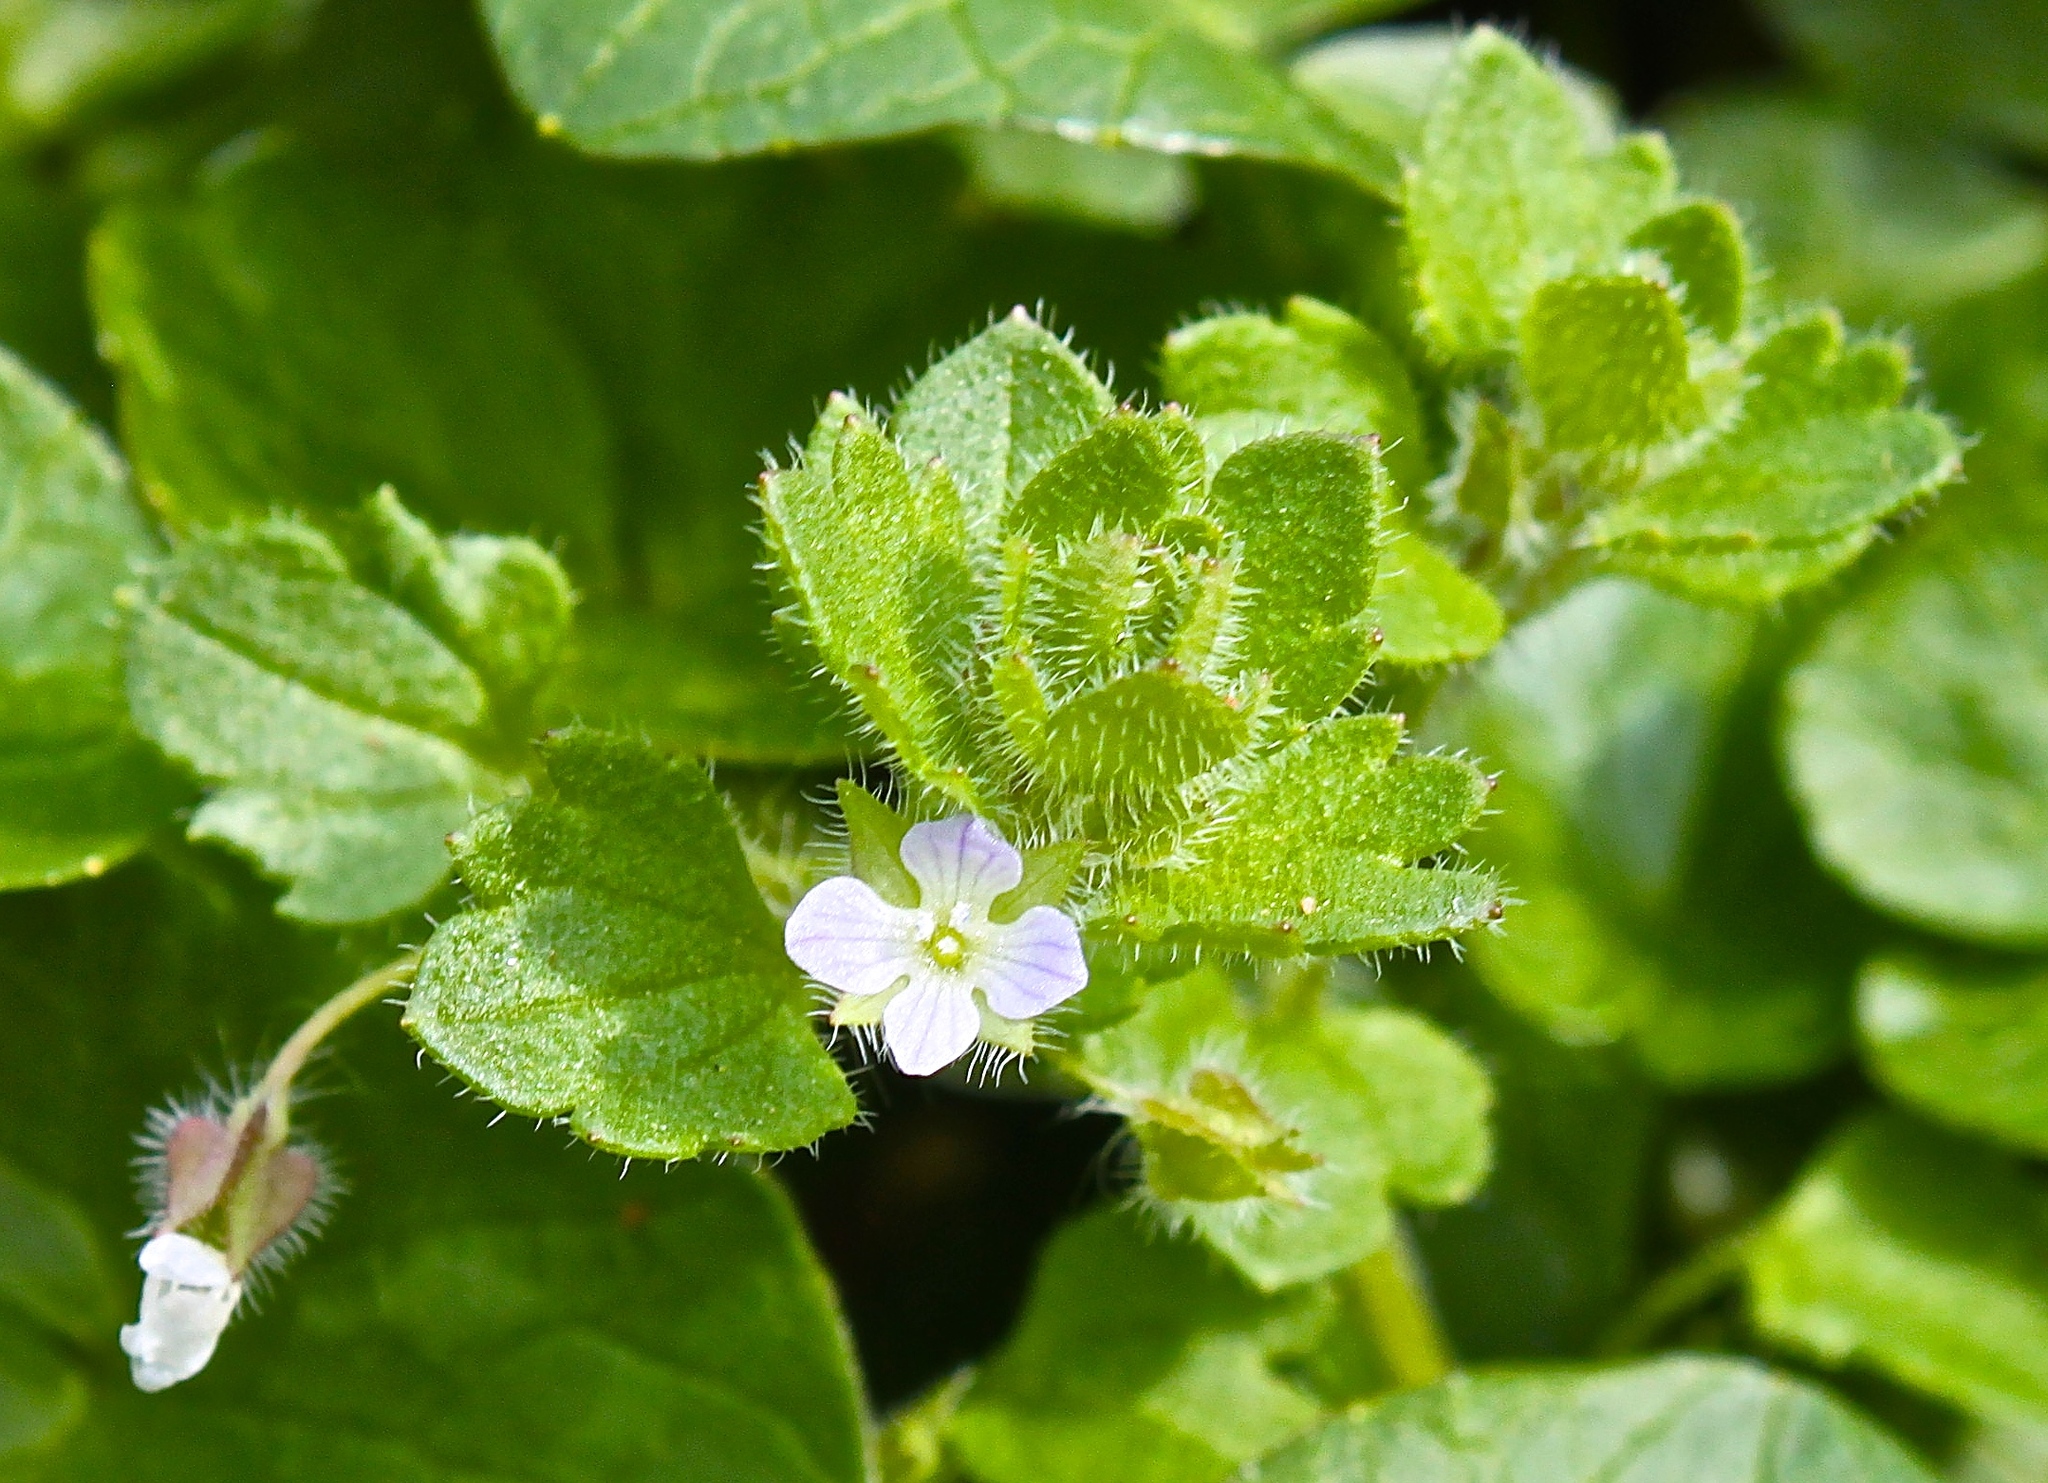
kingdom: Plantae
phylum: Tracheophyta
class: Magnoliopsida
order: Lamiales
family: Plantaginaceae
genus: Veronica
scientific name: Veronica hederifolia
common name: Ivy-leaved speedwell
